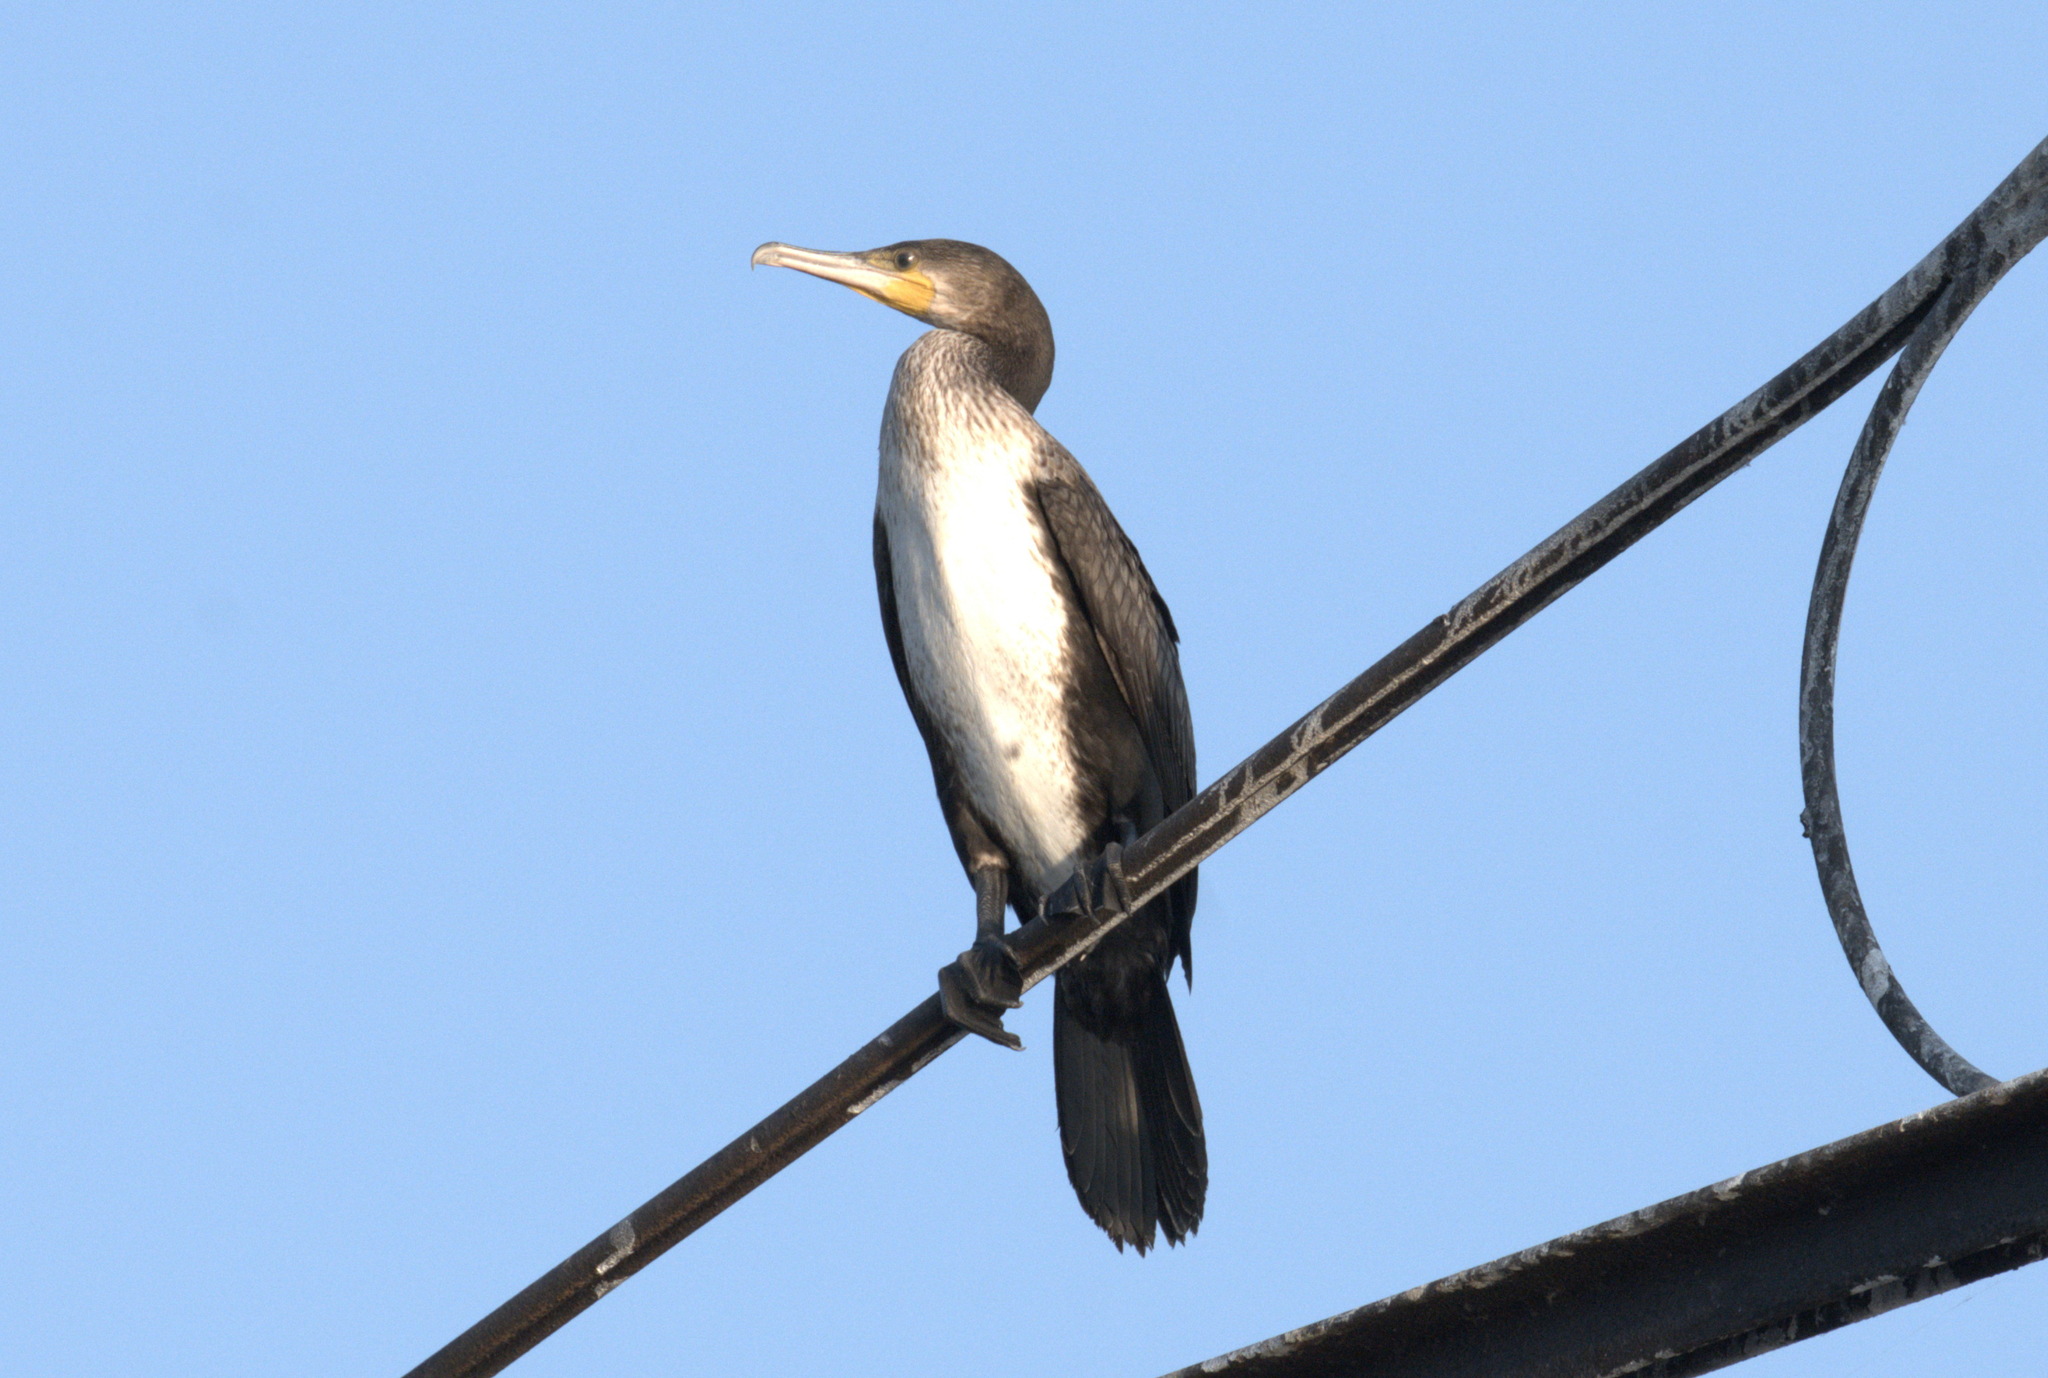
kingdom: Animalia
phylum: Chordata
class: Aves
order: Suliformes
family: Phalacrocoracidae
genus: Phalacrocorax
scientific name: Phalacrocorax carbo
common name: Great cormorant
